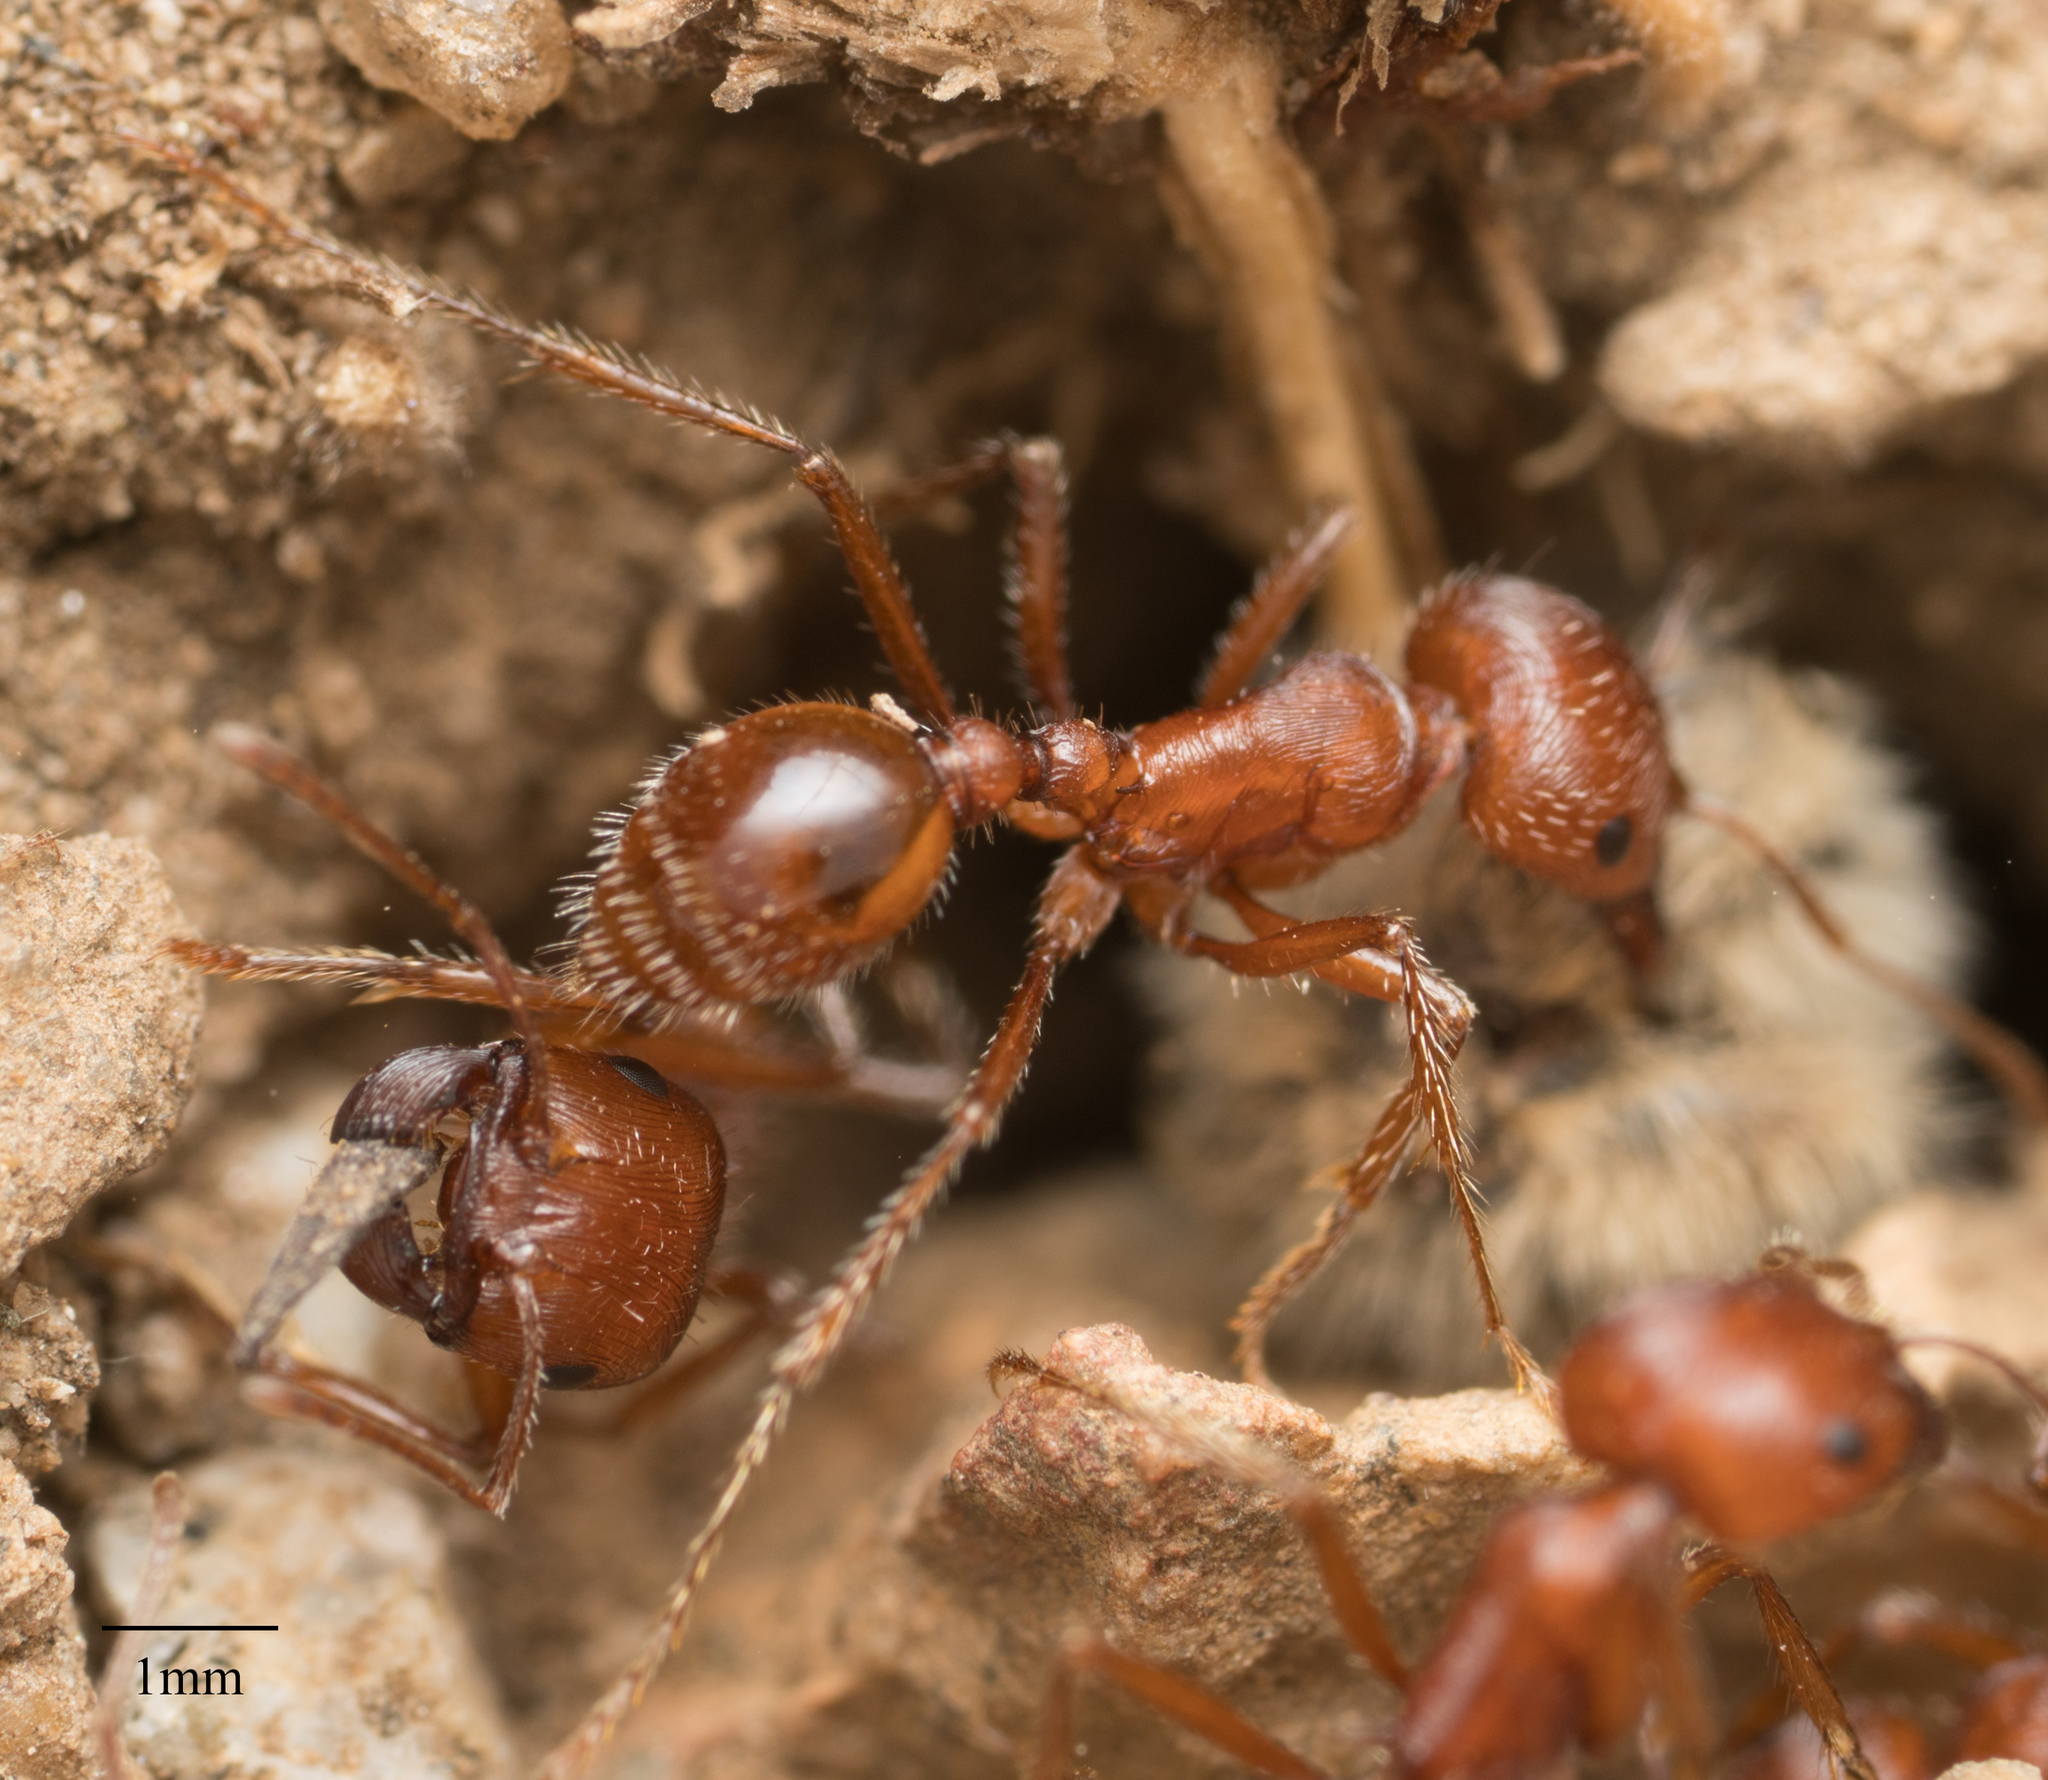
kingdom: Animalia
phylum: Arthropoda
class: Insecta
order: Hymenoptera
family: Formicidae
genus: Pogonomyrmex
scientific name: Pogonomyrmex subnitidus
